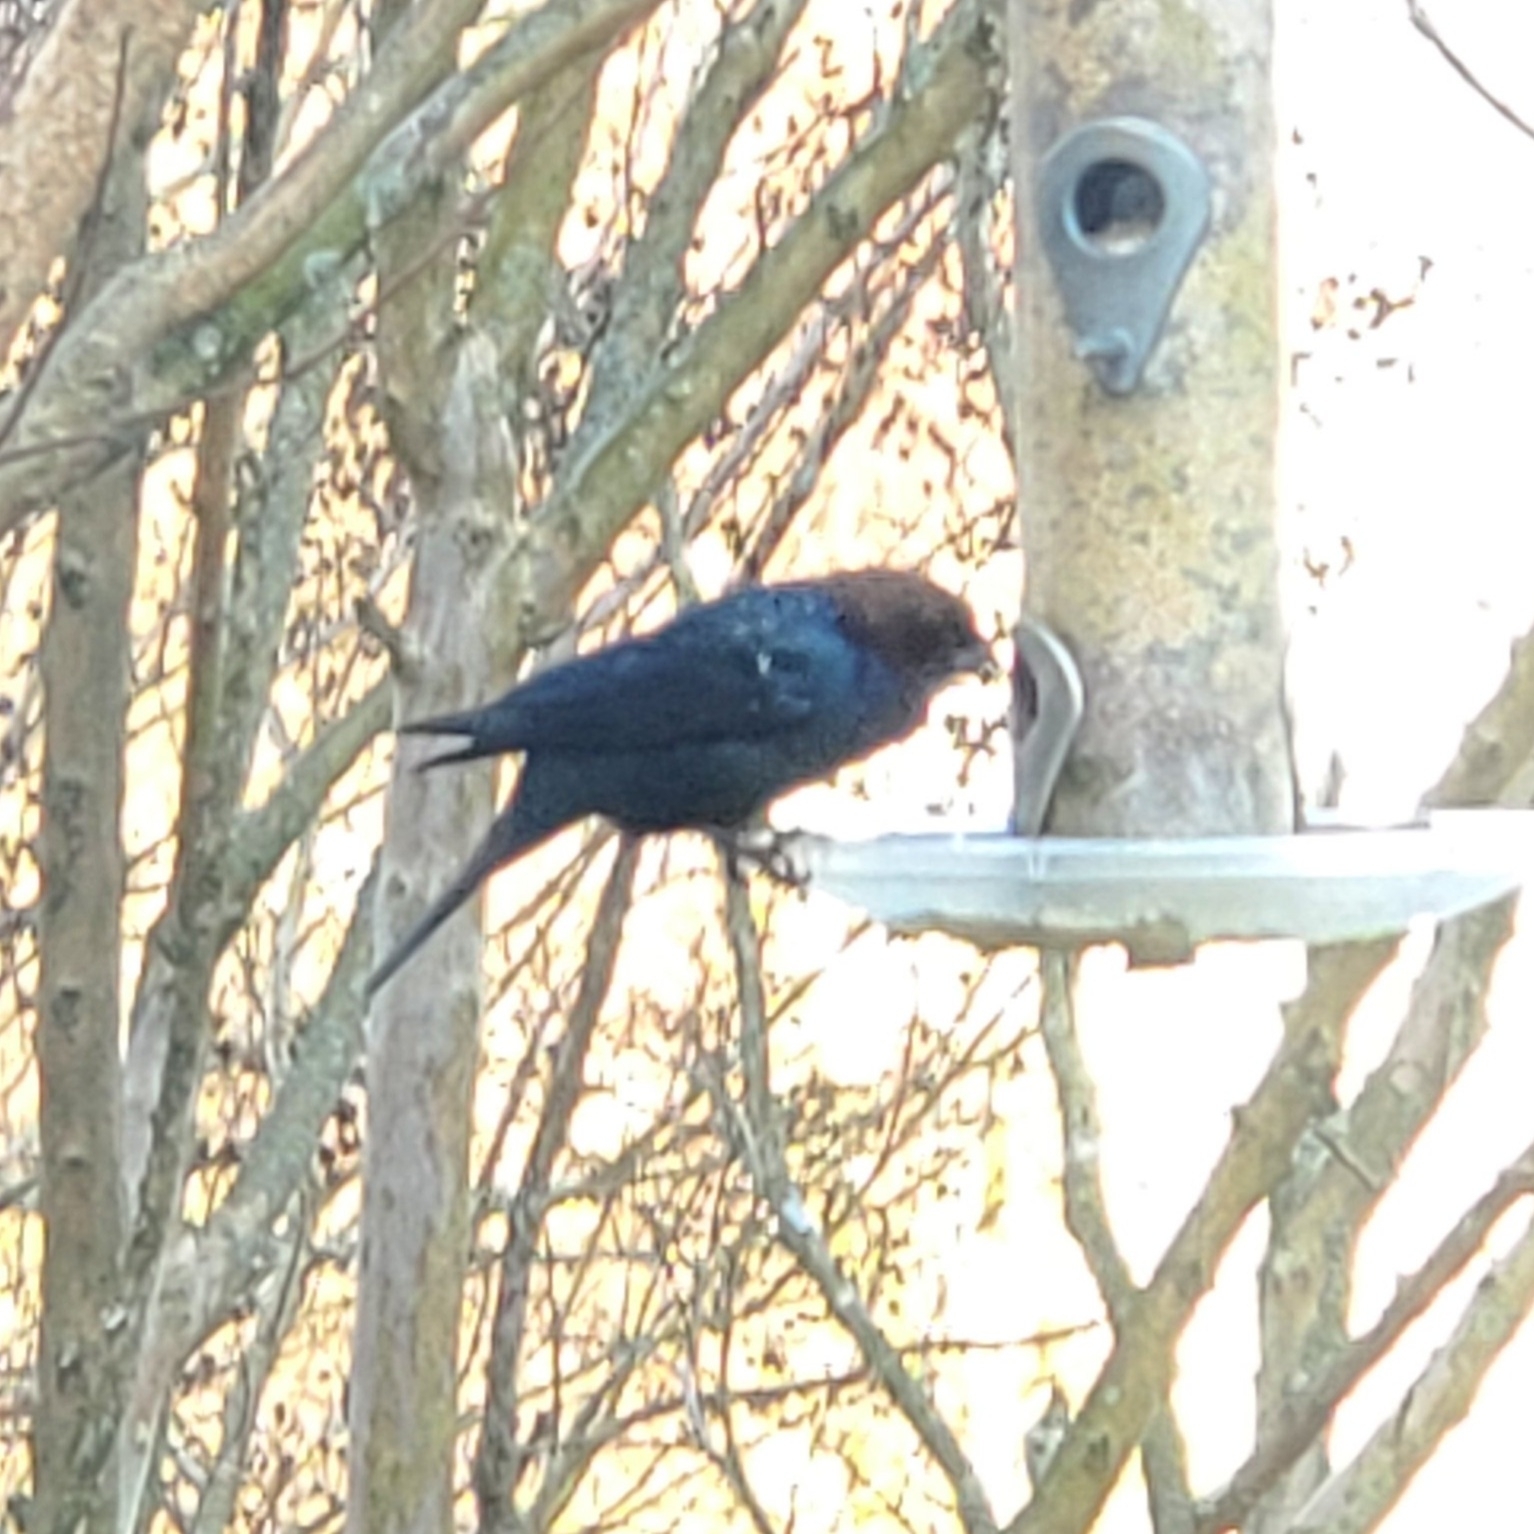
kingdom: Animalia
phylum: Chordata
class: Aves
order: Passeriformes
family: Icteridae
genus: Molothrus
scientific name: Molothrus ater
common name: Brown-headed cowbird
